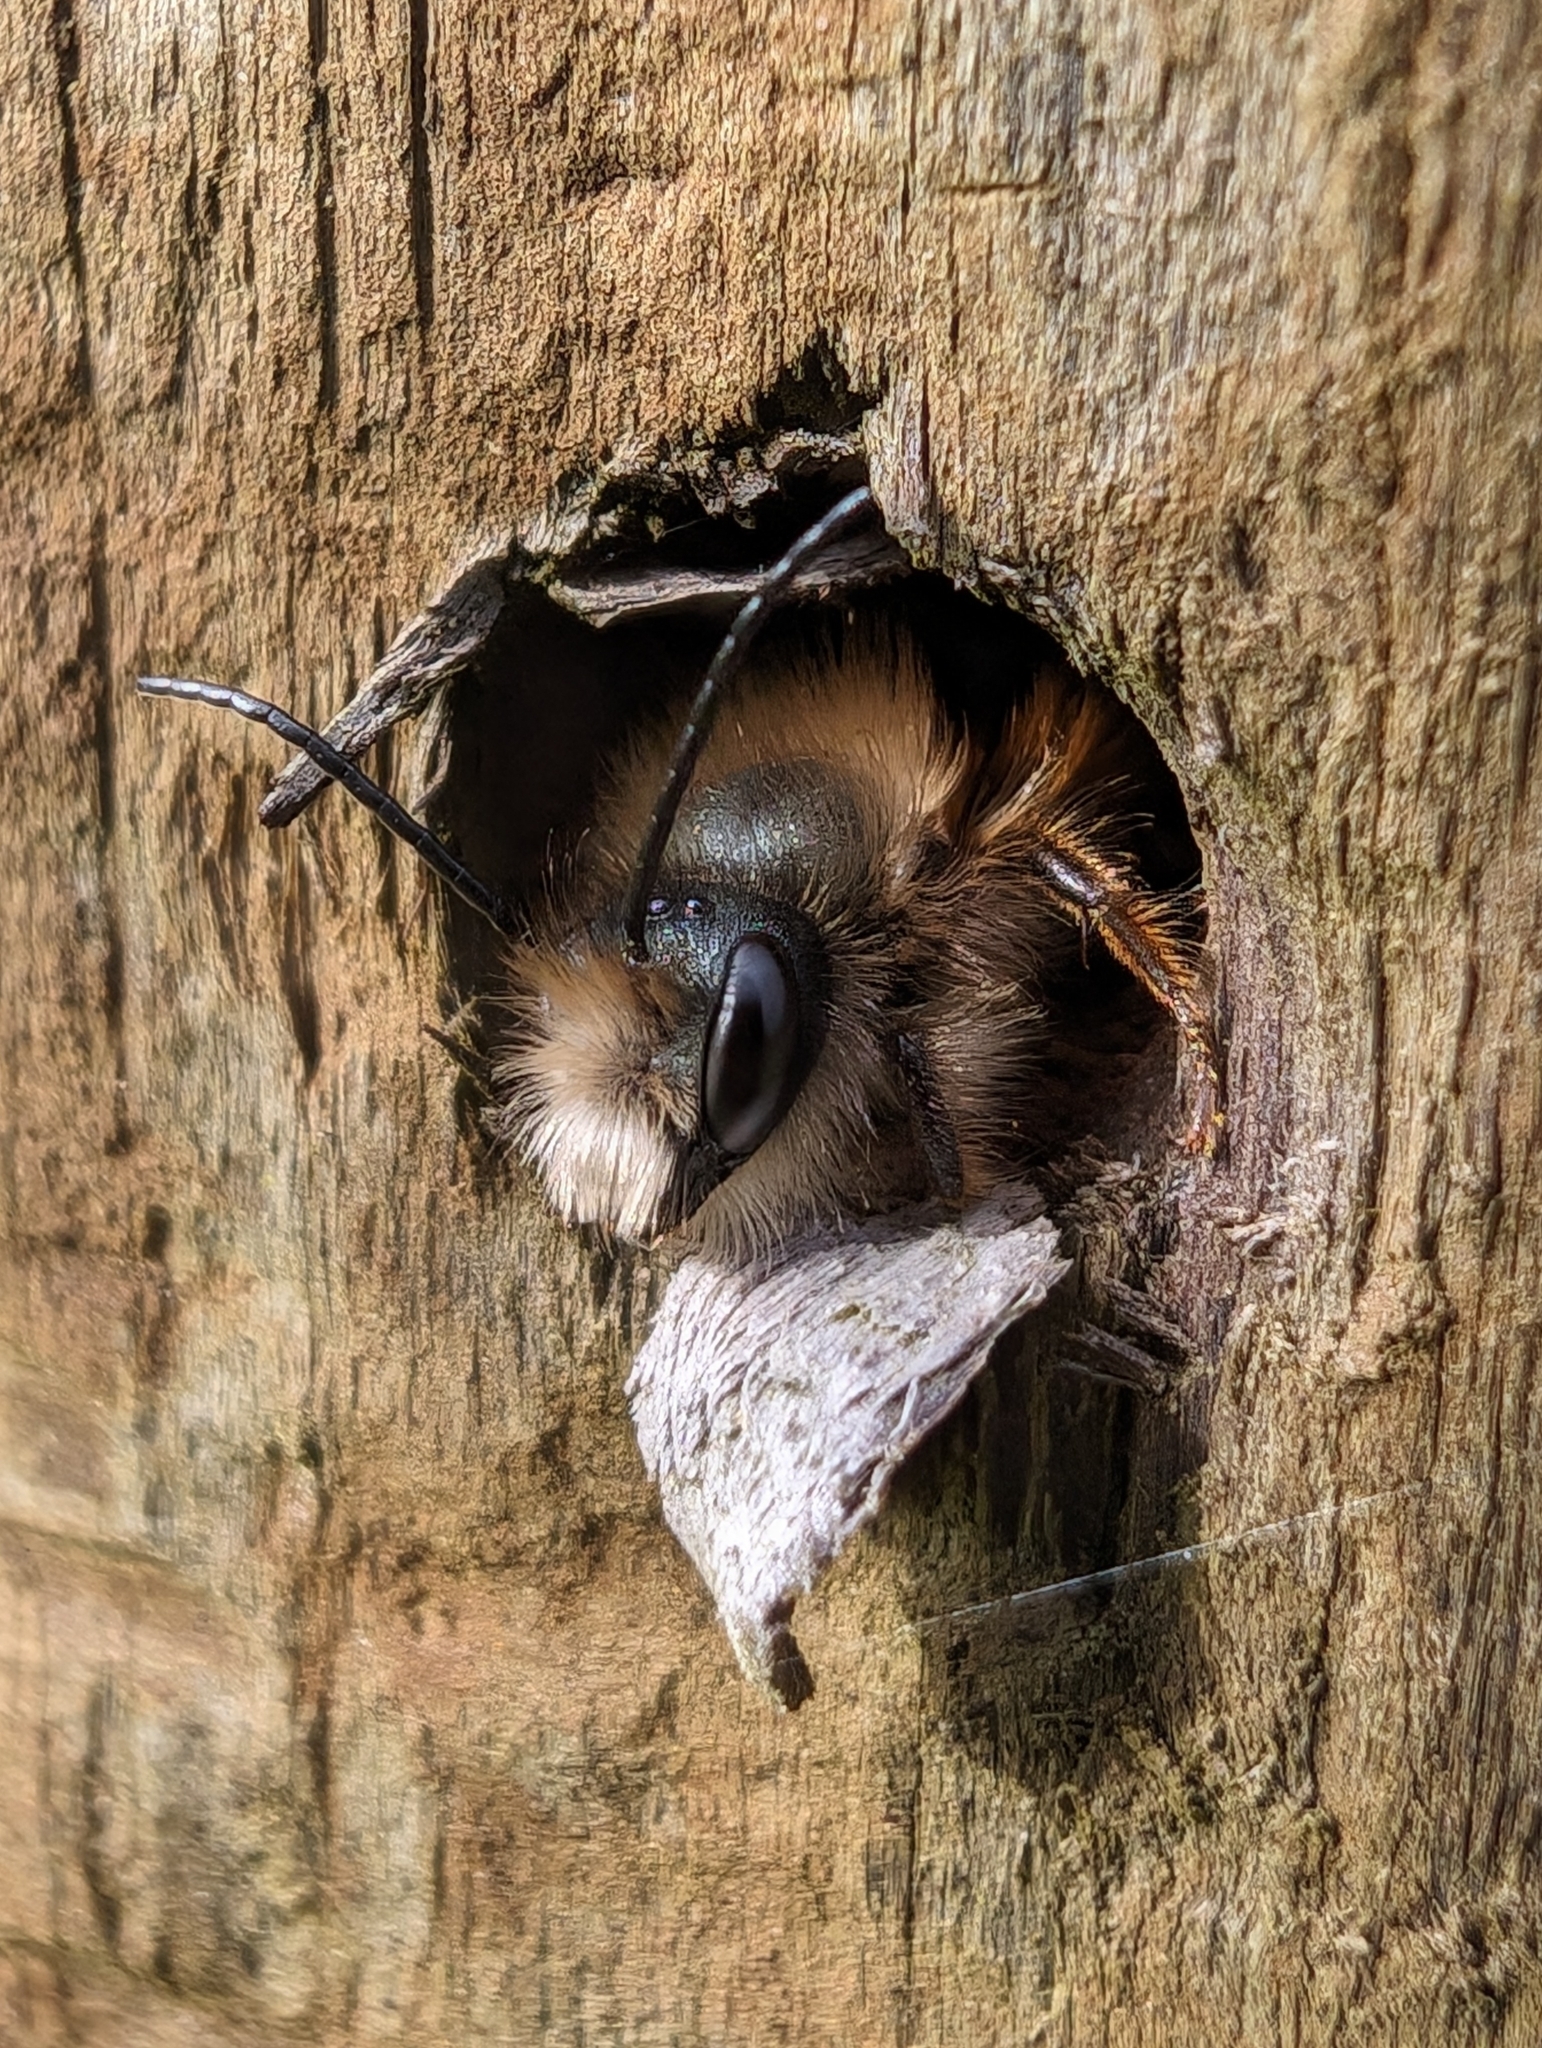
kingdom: Animalia
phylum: Arthropoda
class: Insecta
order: Hymenoptera
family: Megachilidae
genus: Osmia
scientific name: Osmia bicornis
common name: Red mason bee
